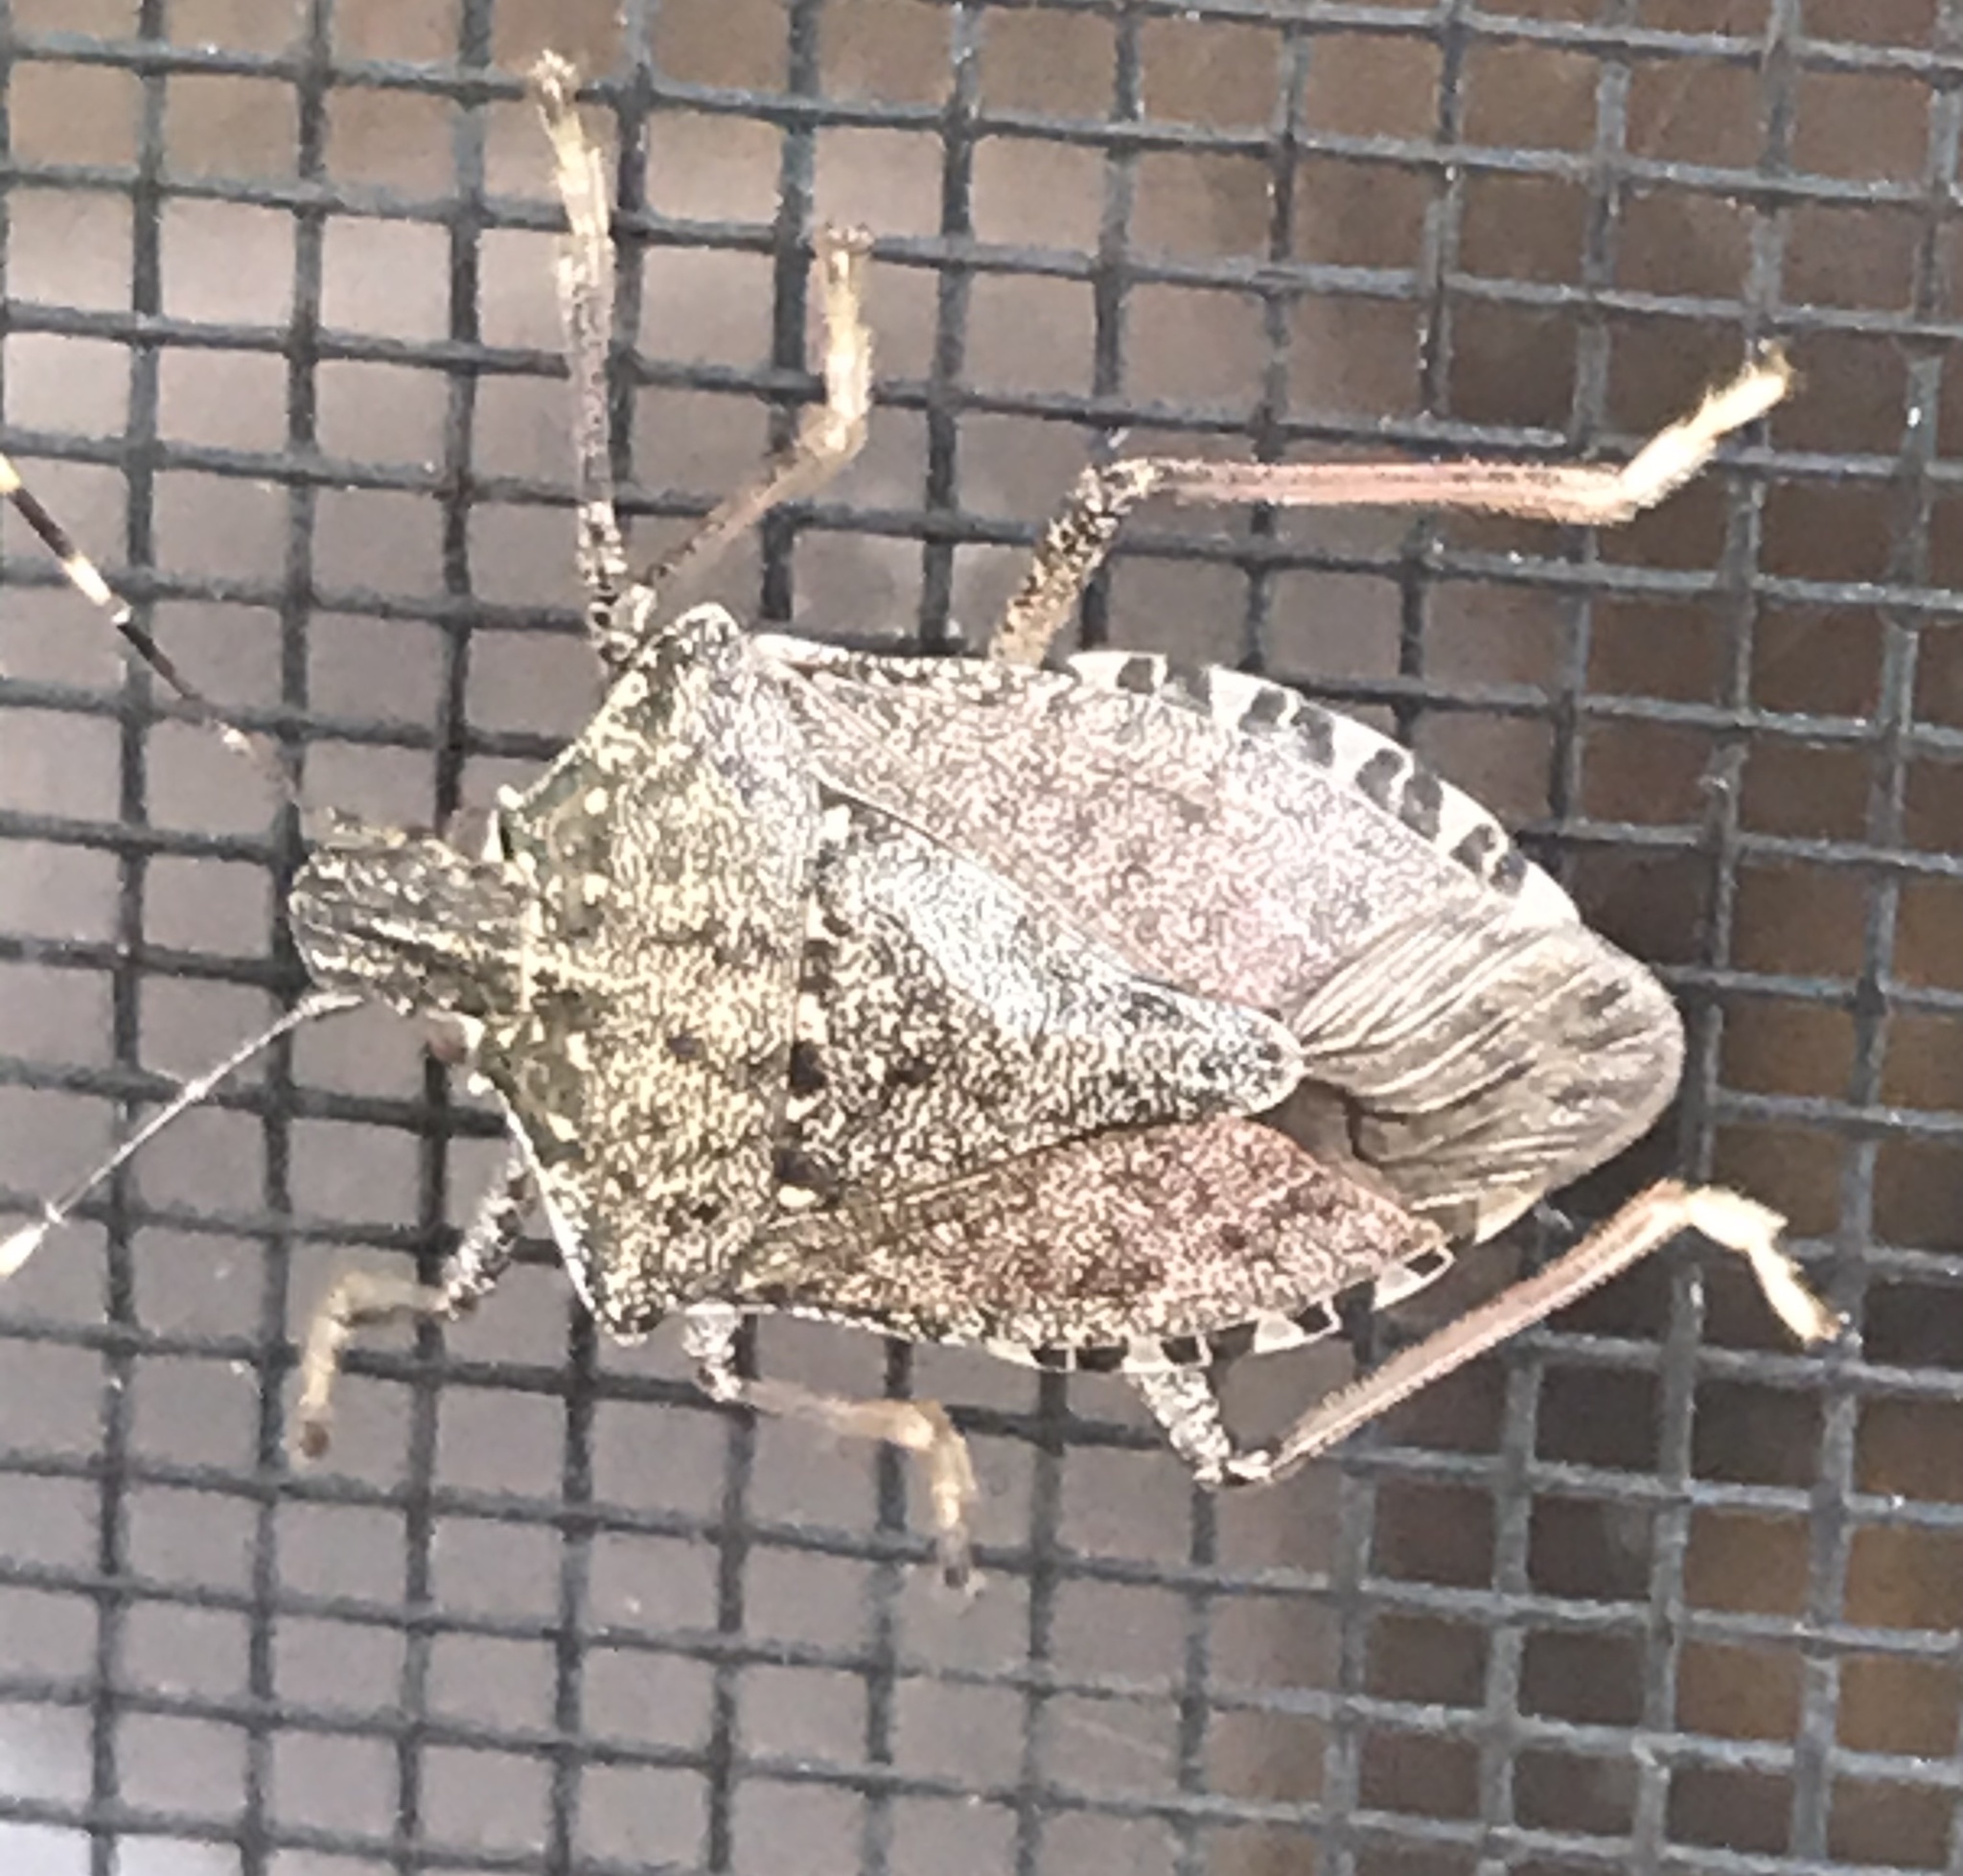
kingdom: Animalia
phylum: Arthropoda
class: Insecta
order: Hemiptera
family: Pentatomidae
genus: Halyomorpha
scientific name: Halyomorpha halys
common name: Brown marmorated stink bug
